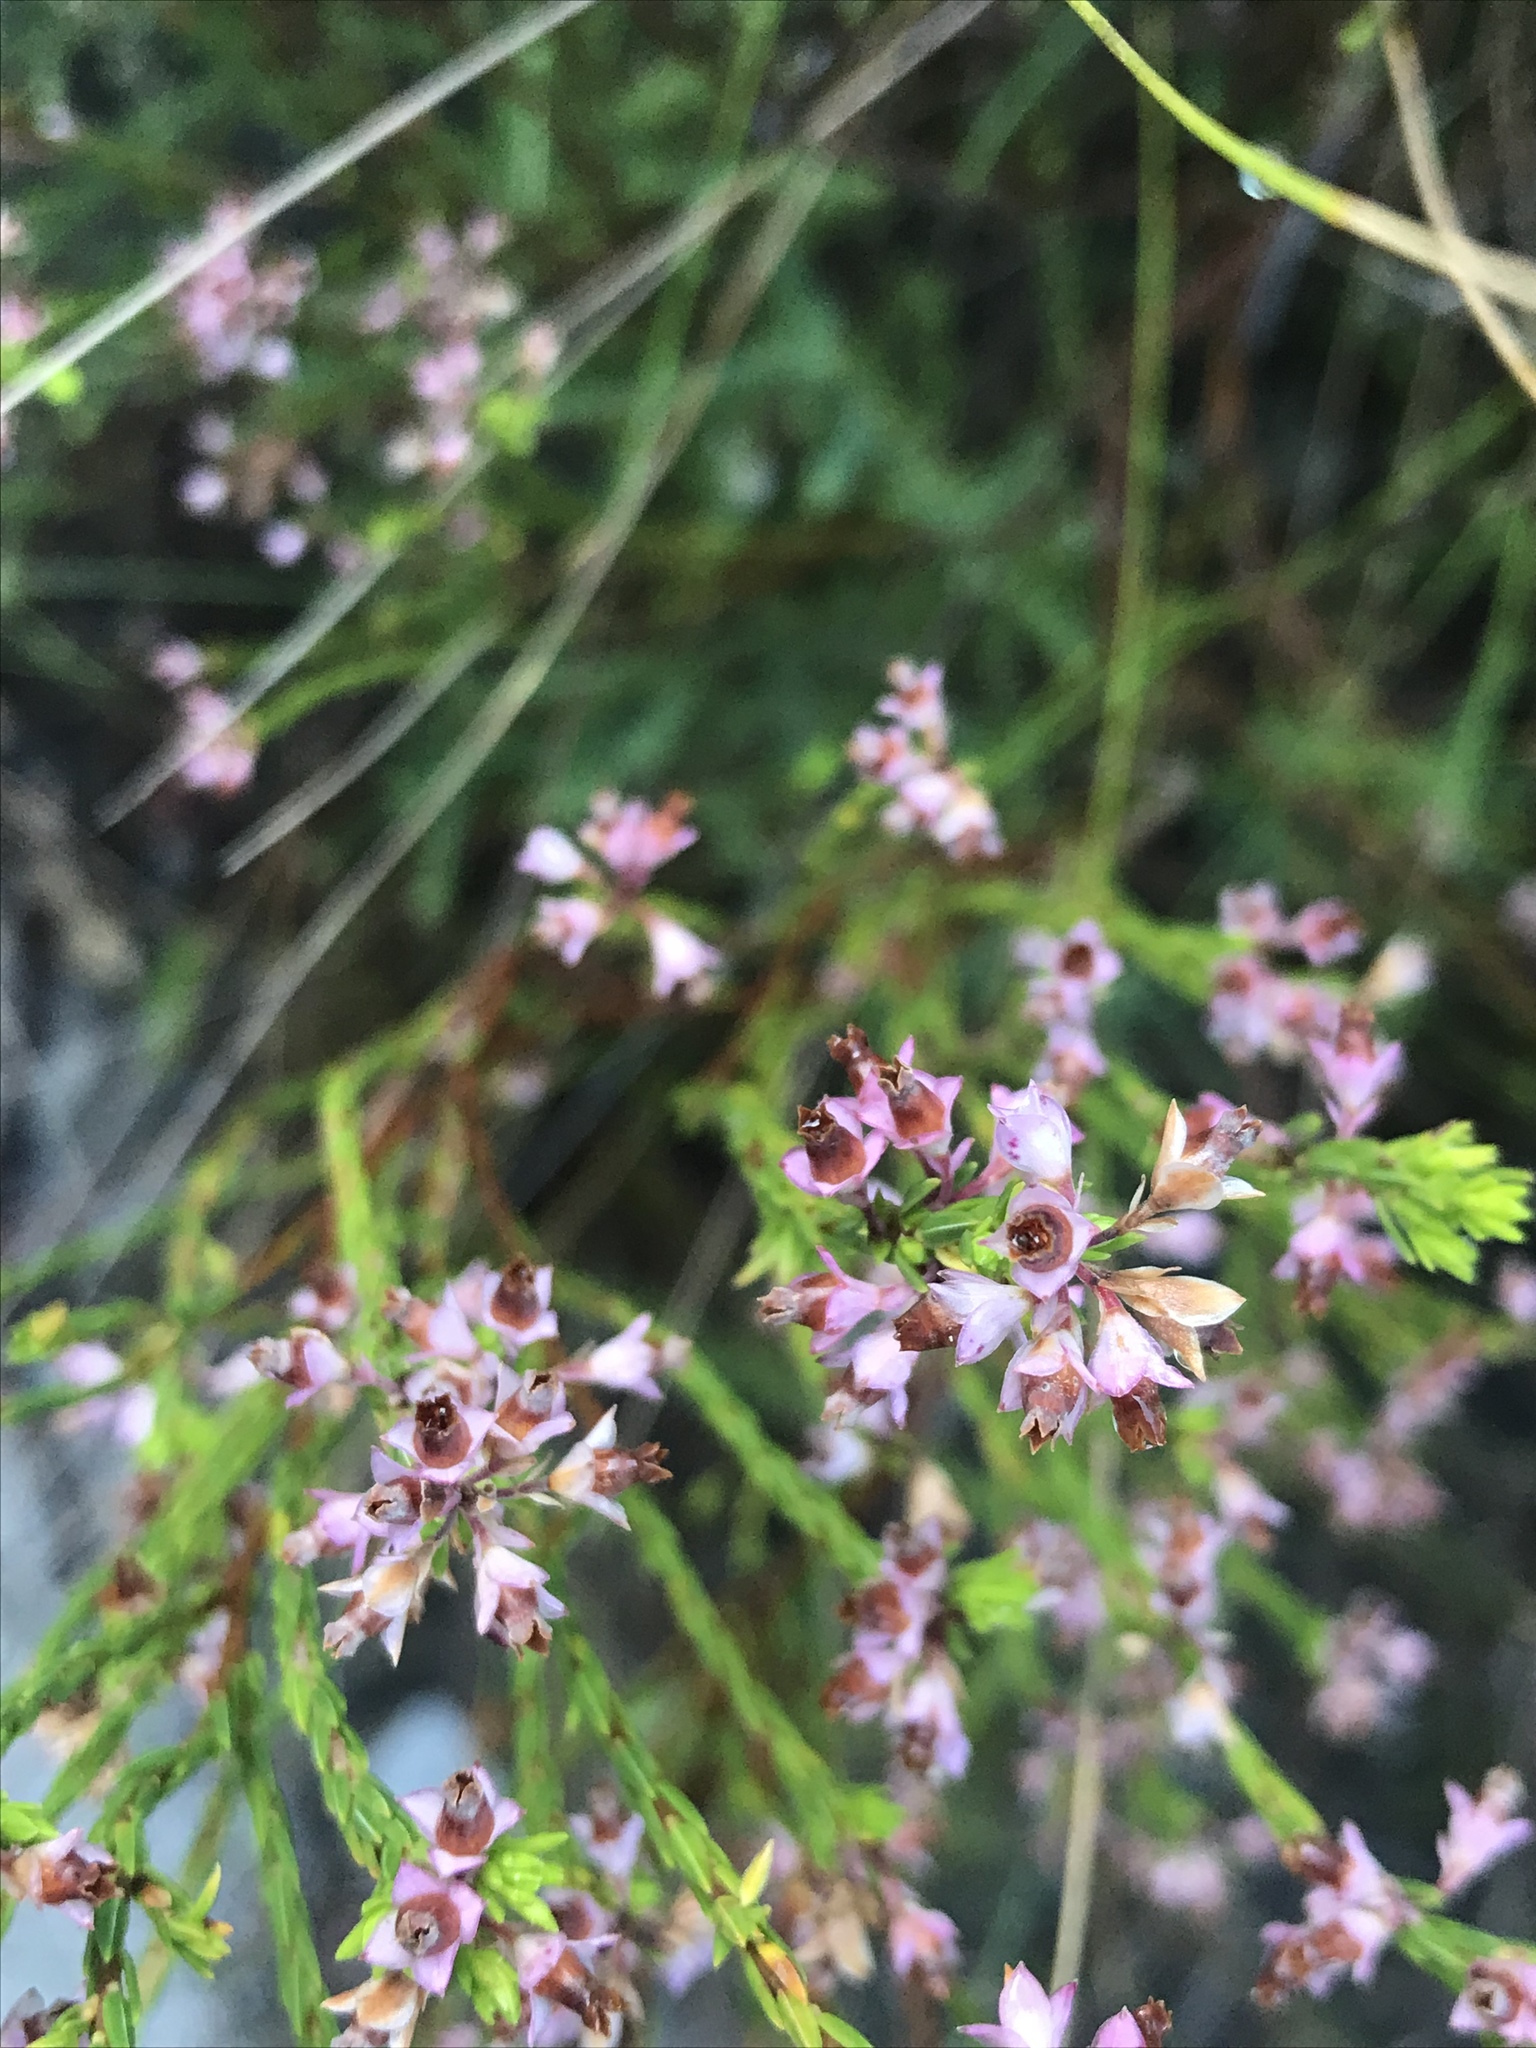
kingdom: Plantae
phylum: Tracheophyta
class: Magnoliopsida
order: Ericales
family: Ericaceae
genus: Erica
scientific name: Erica corifolia
